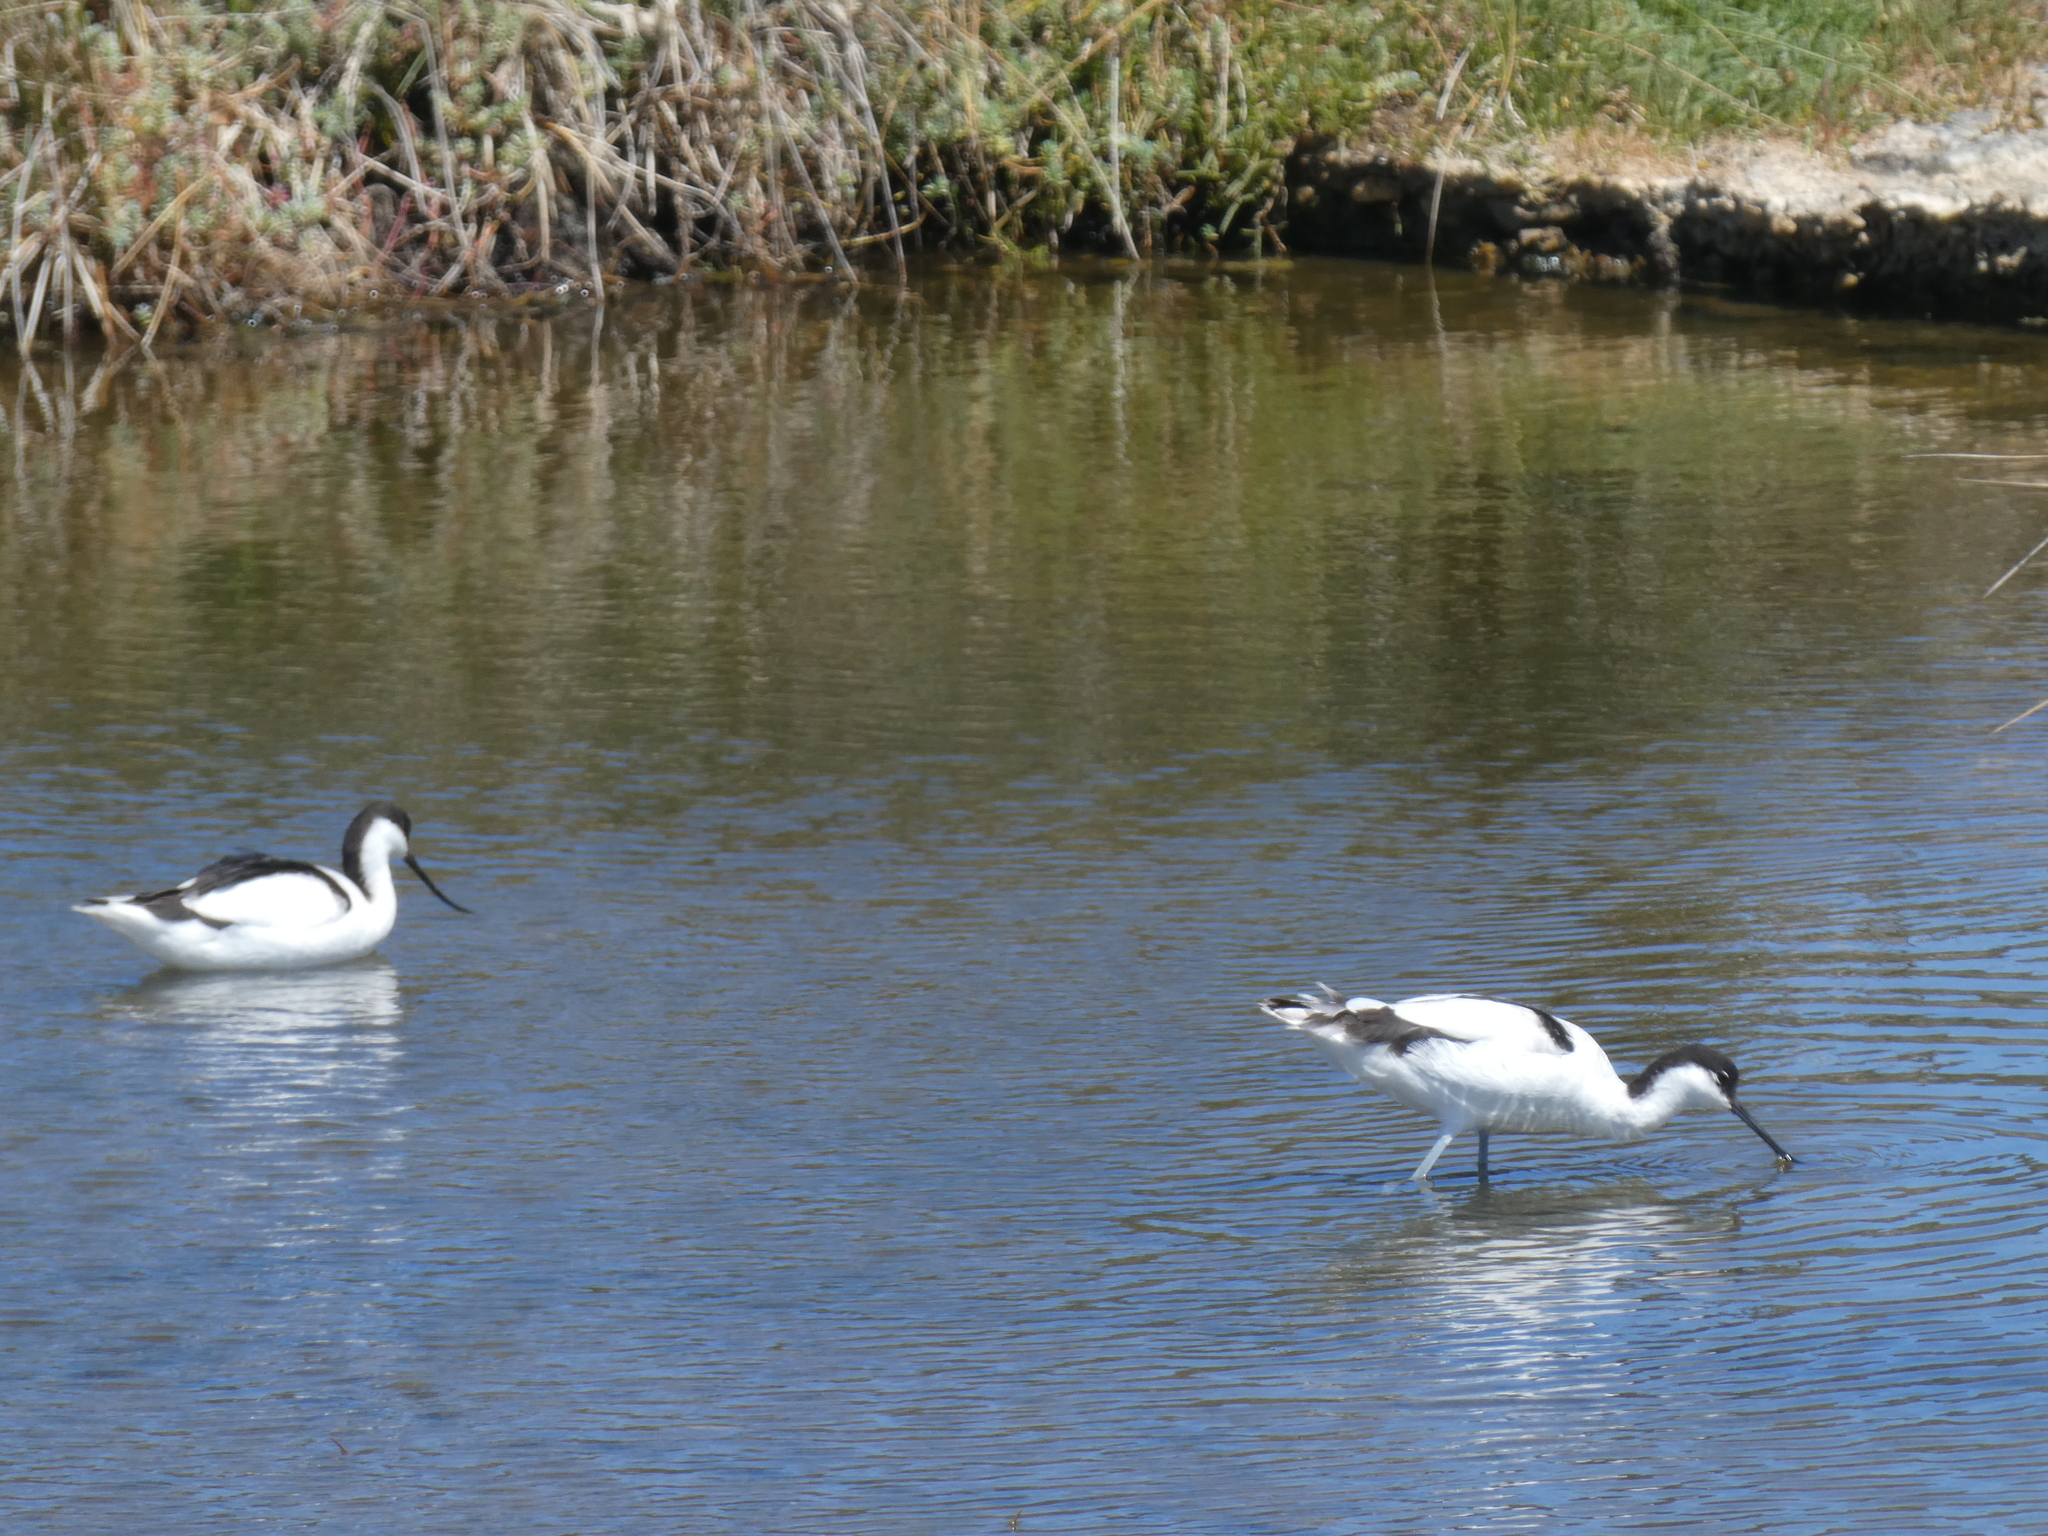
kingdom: Animalia
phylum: Chordata
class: Aves
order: Charadriiformes
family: Recurvirostridae
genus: Recurvirostra
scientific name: Recurvirostra avosetta
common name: Pied avocet
